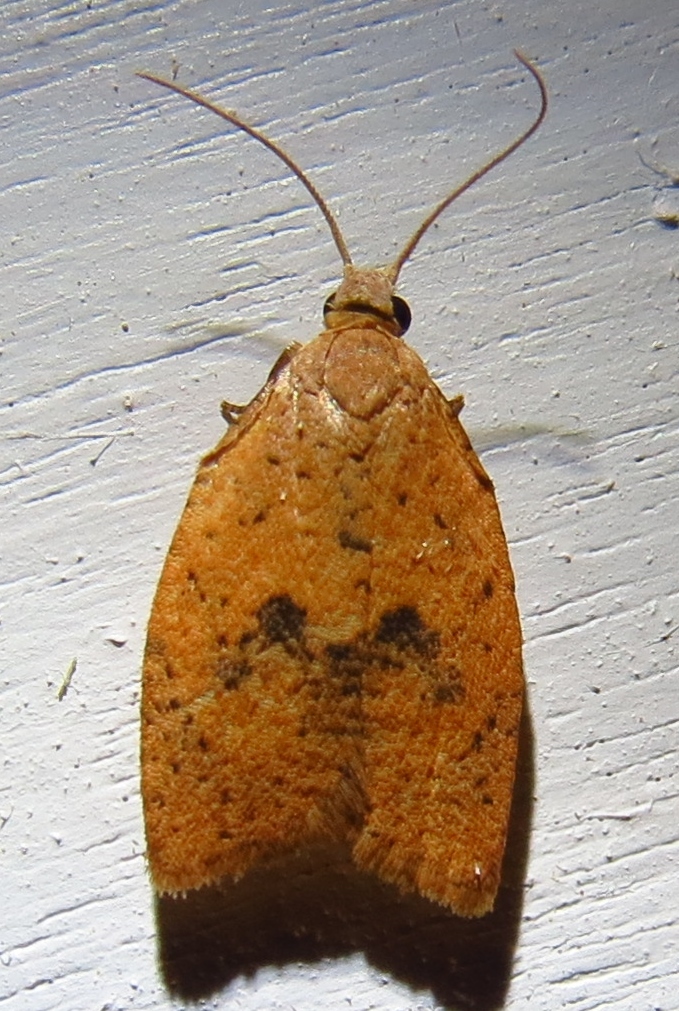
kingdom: Animalia
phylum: Arthropoda
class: Insecta
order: Lepidoptera
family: Tortricidae
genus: Sparganothoides
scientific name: Sparganothoides lentiginosana
